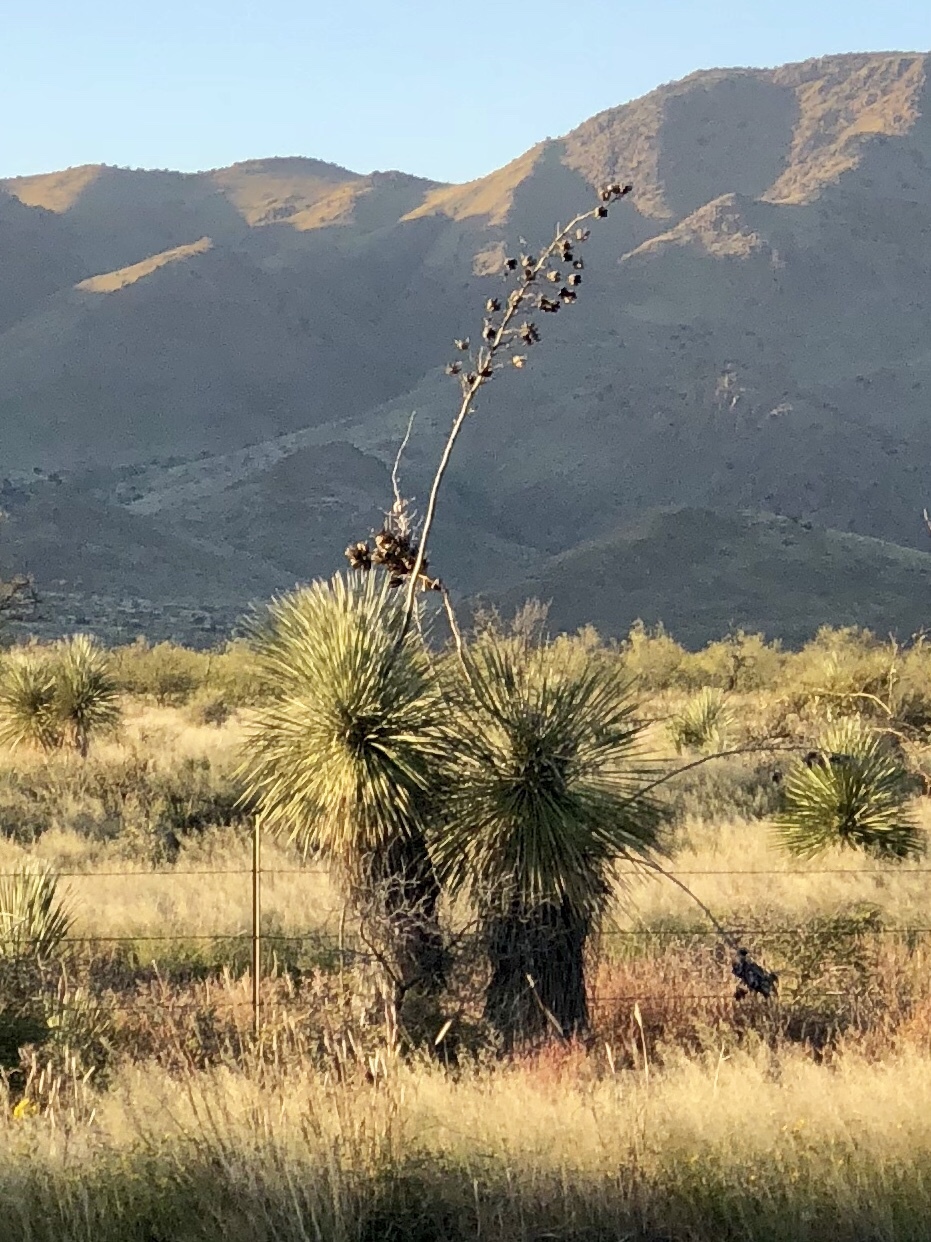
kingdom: Plantae
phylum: Tracheophyta
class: Liliopsida
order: Asparagales
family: Asparagaceae
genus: Yucca
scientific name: Yucca elata
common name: Palmella
